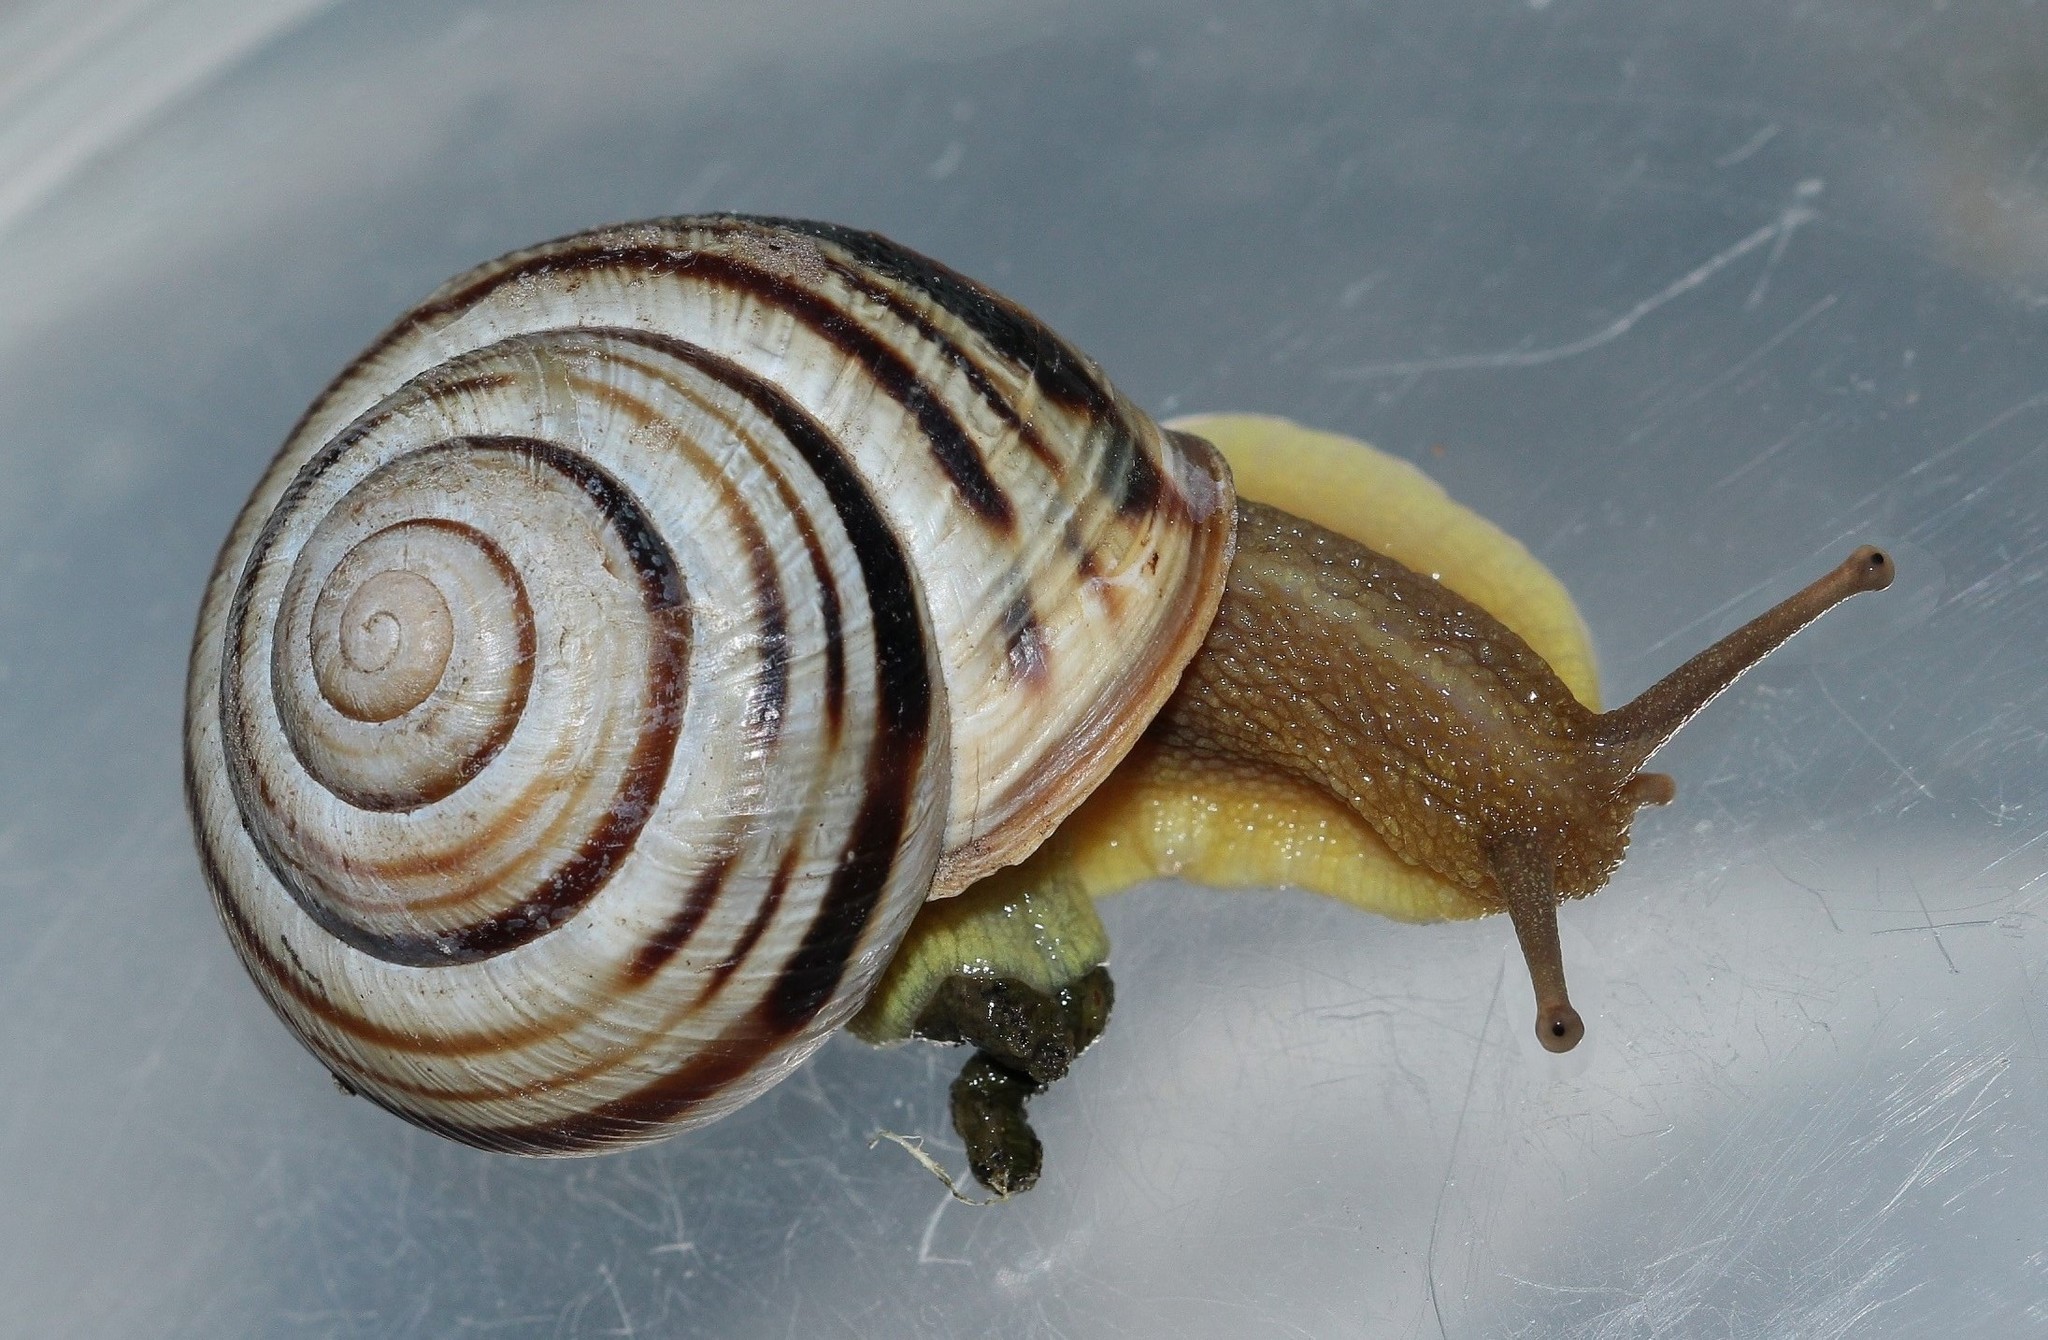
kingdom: Animalia
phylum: Mollusca
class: Gastropoda
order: Stylommatophora
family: Helicidae
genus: Caucasotachea
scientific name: Caucasotachea vindobonensis
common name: European helicid land snail
